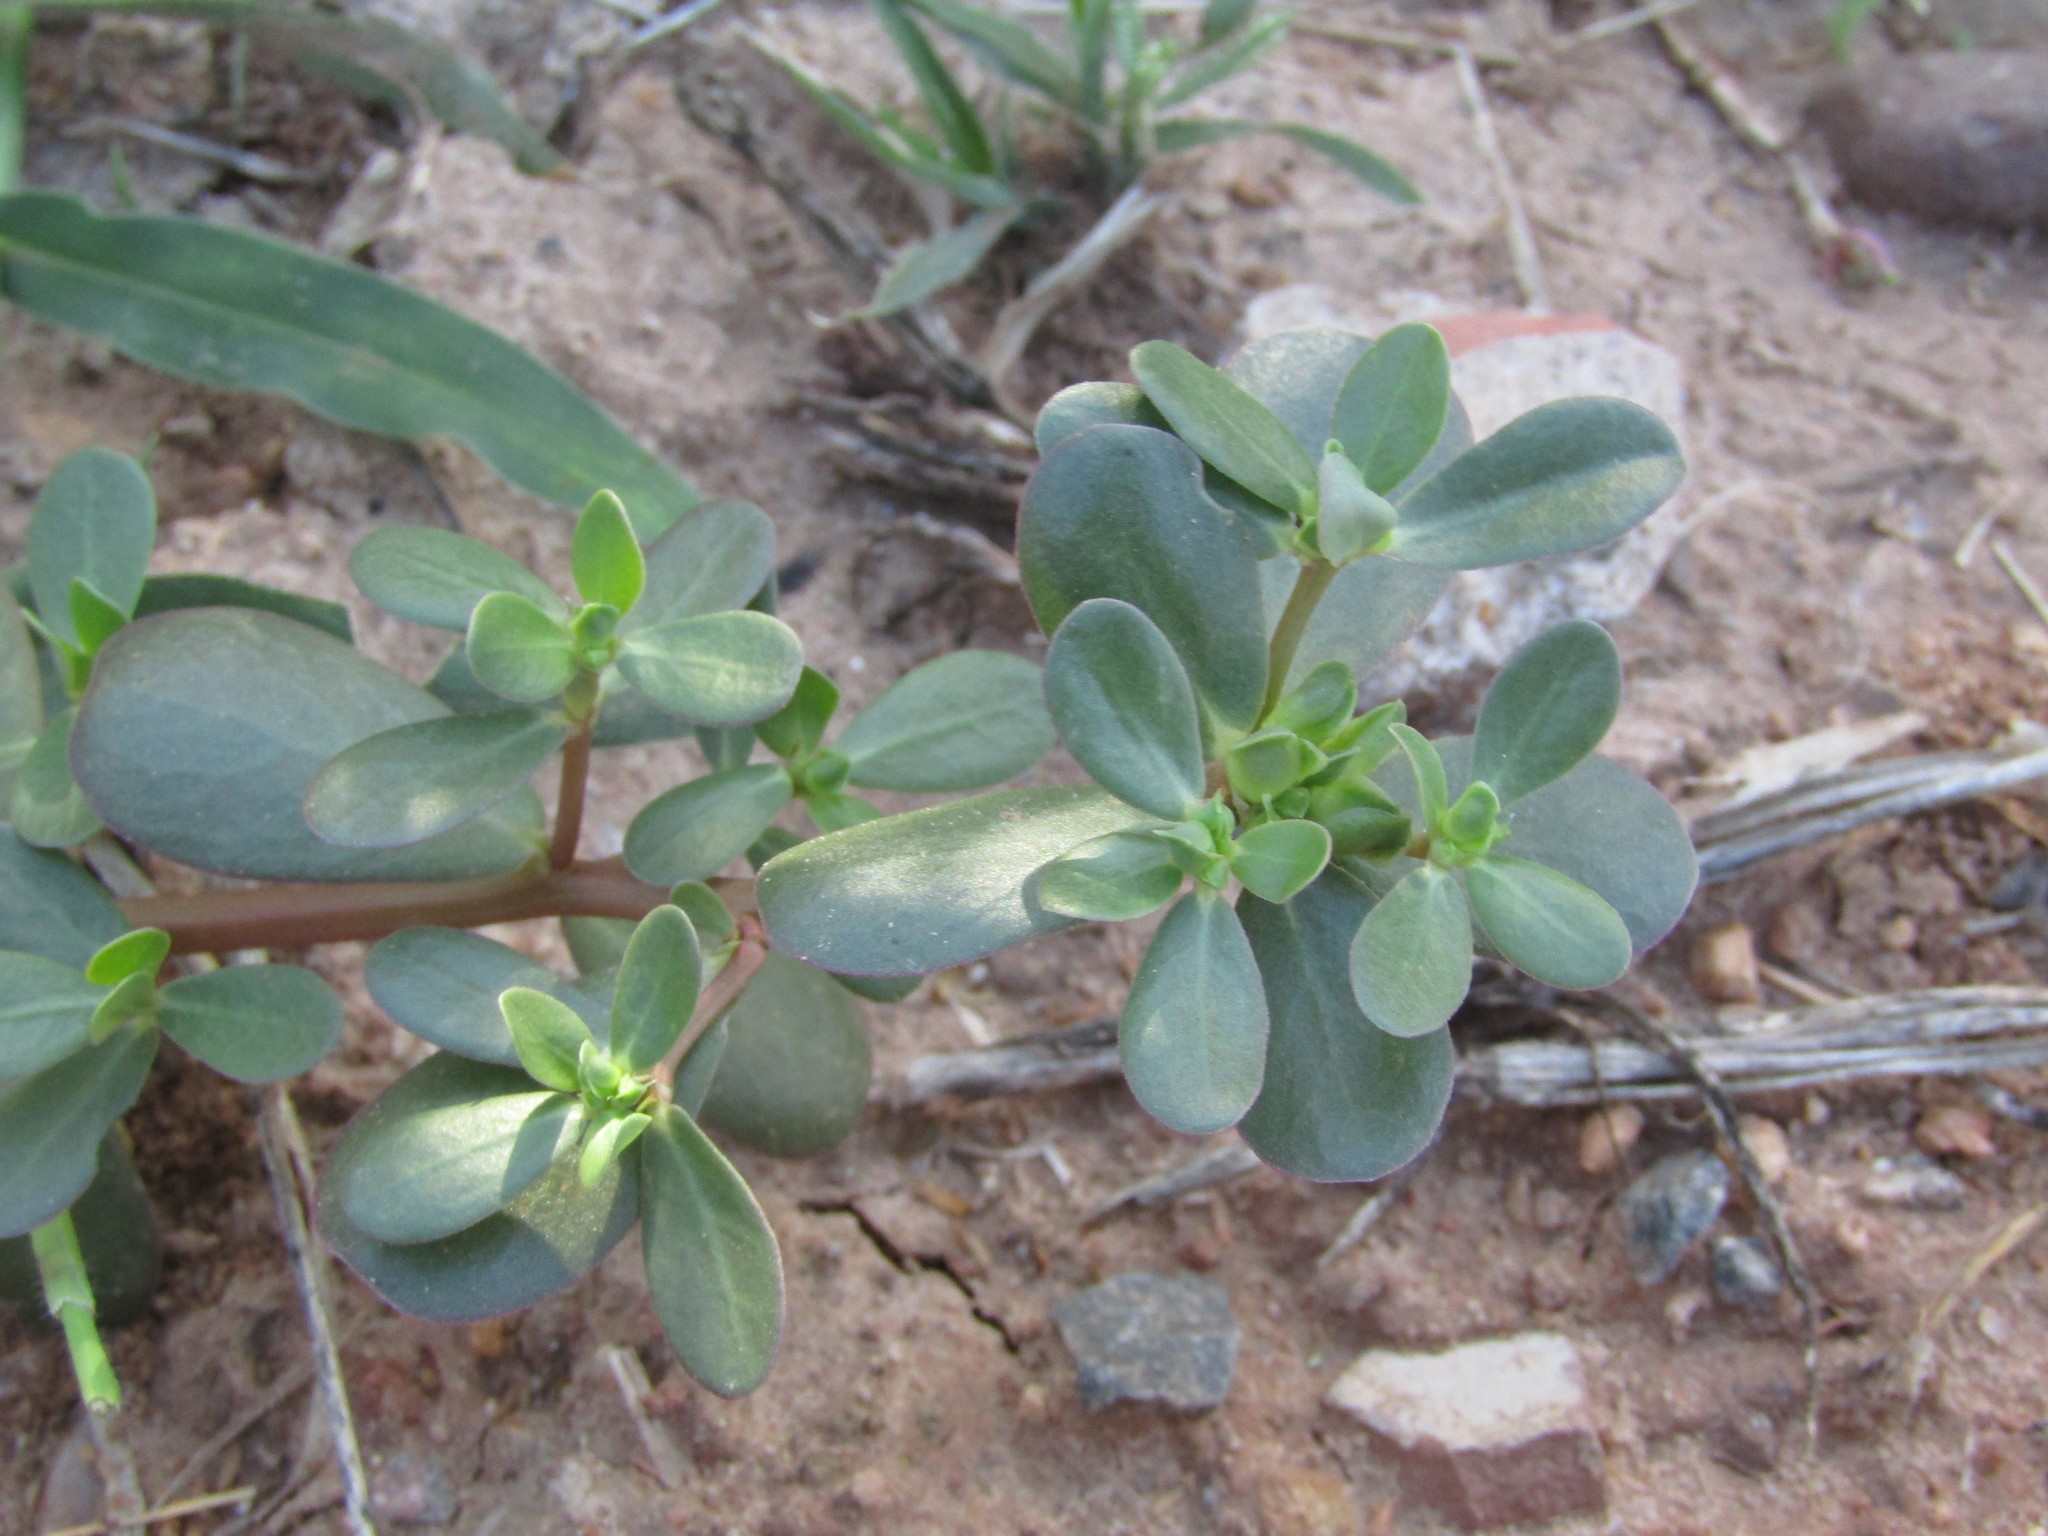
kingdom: Plantae
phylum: Tracheophyta
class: Magnoliopsida
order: Caryophyllales
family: Portulacaceae
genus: Portulaca
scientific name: Portulaca oleracea
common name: Common purslane
